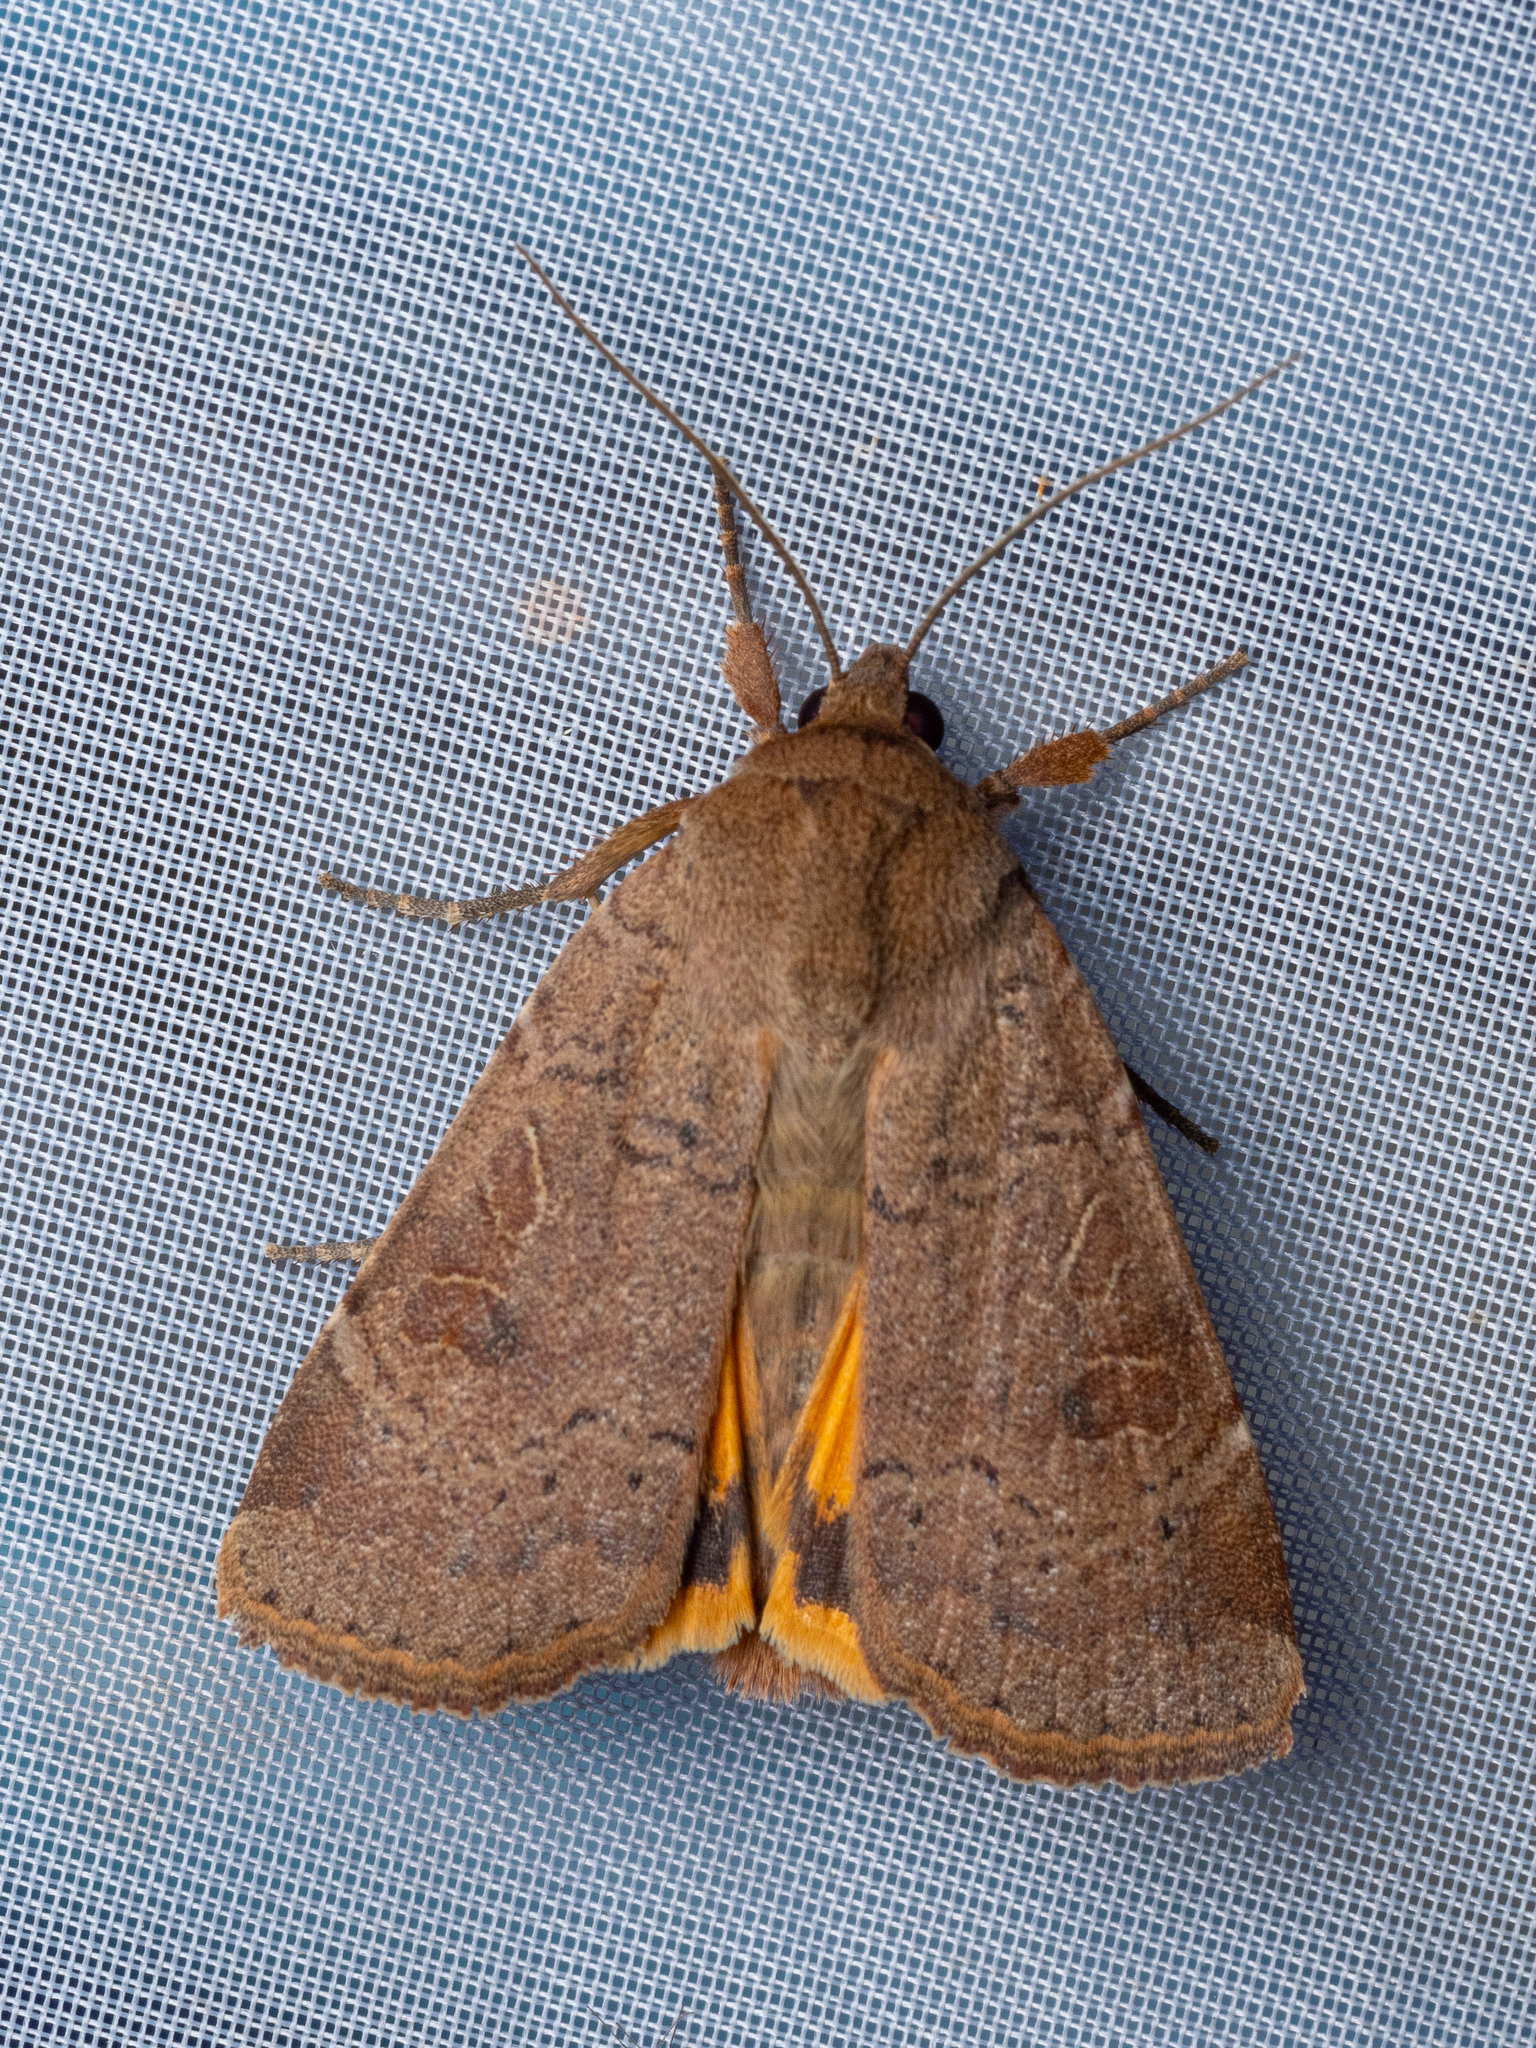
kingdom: Animalia
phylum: Arthropoda
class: Insecta
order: Lepidoptera
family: Noctuidae
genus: Noctua
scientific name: Noctua comes
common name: Lesser yellow underwing
